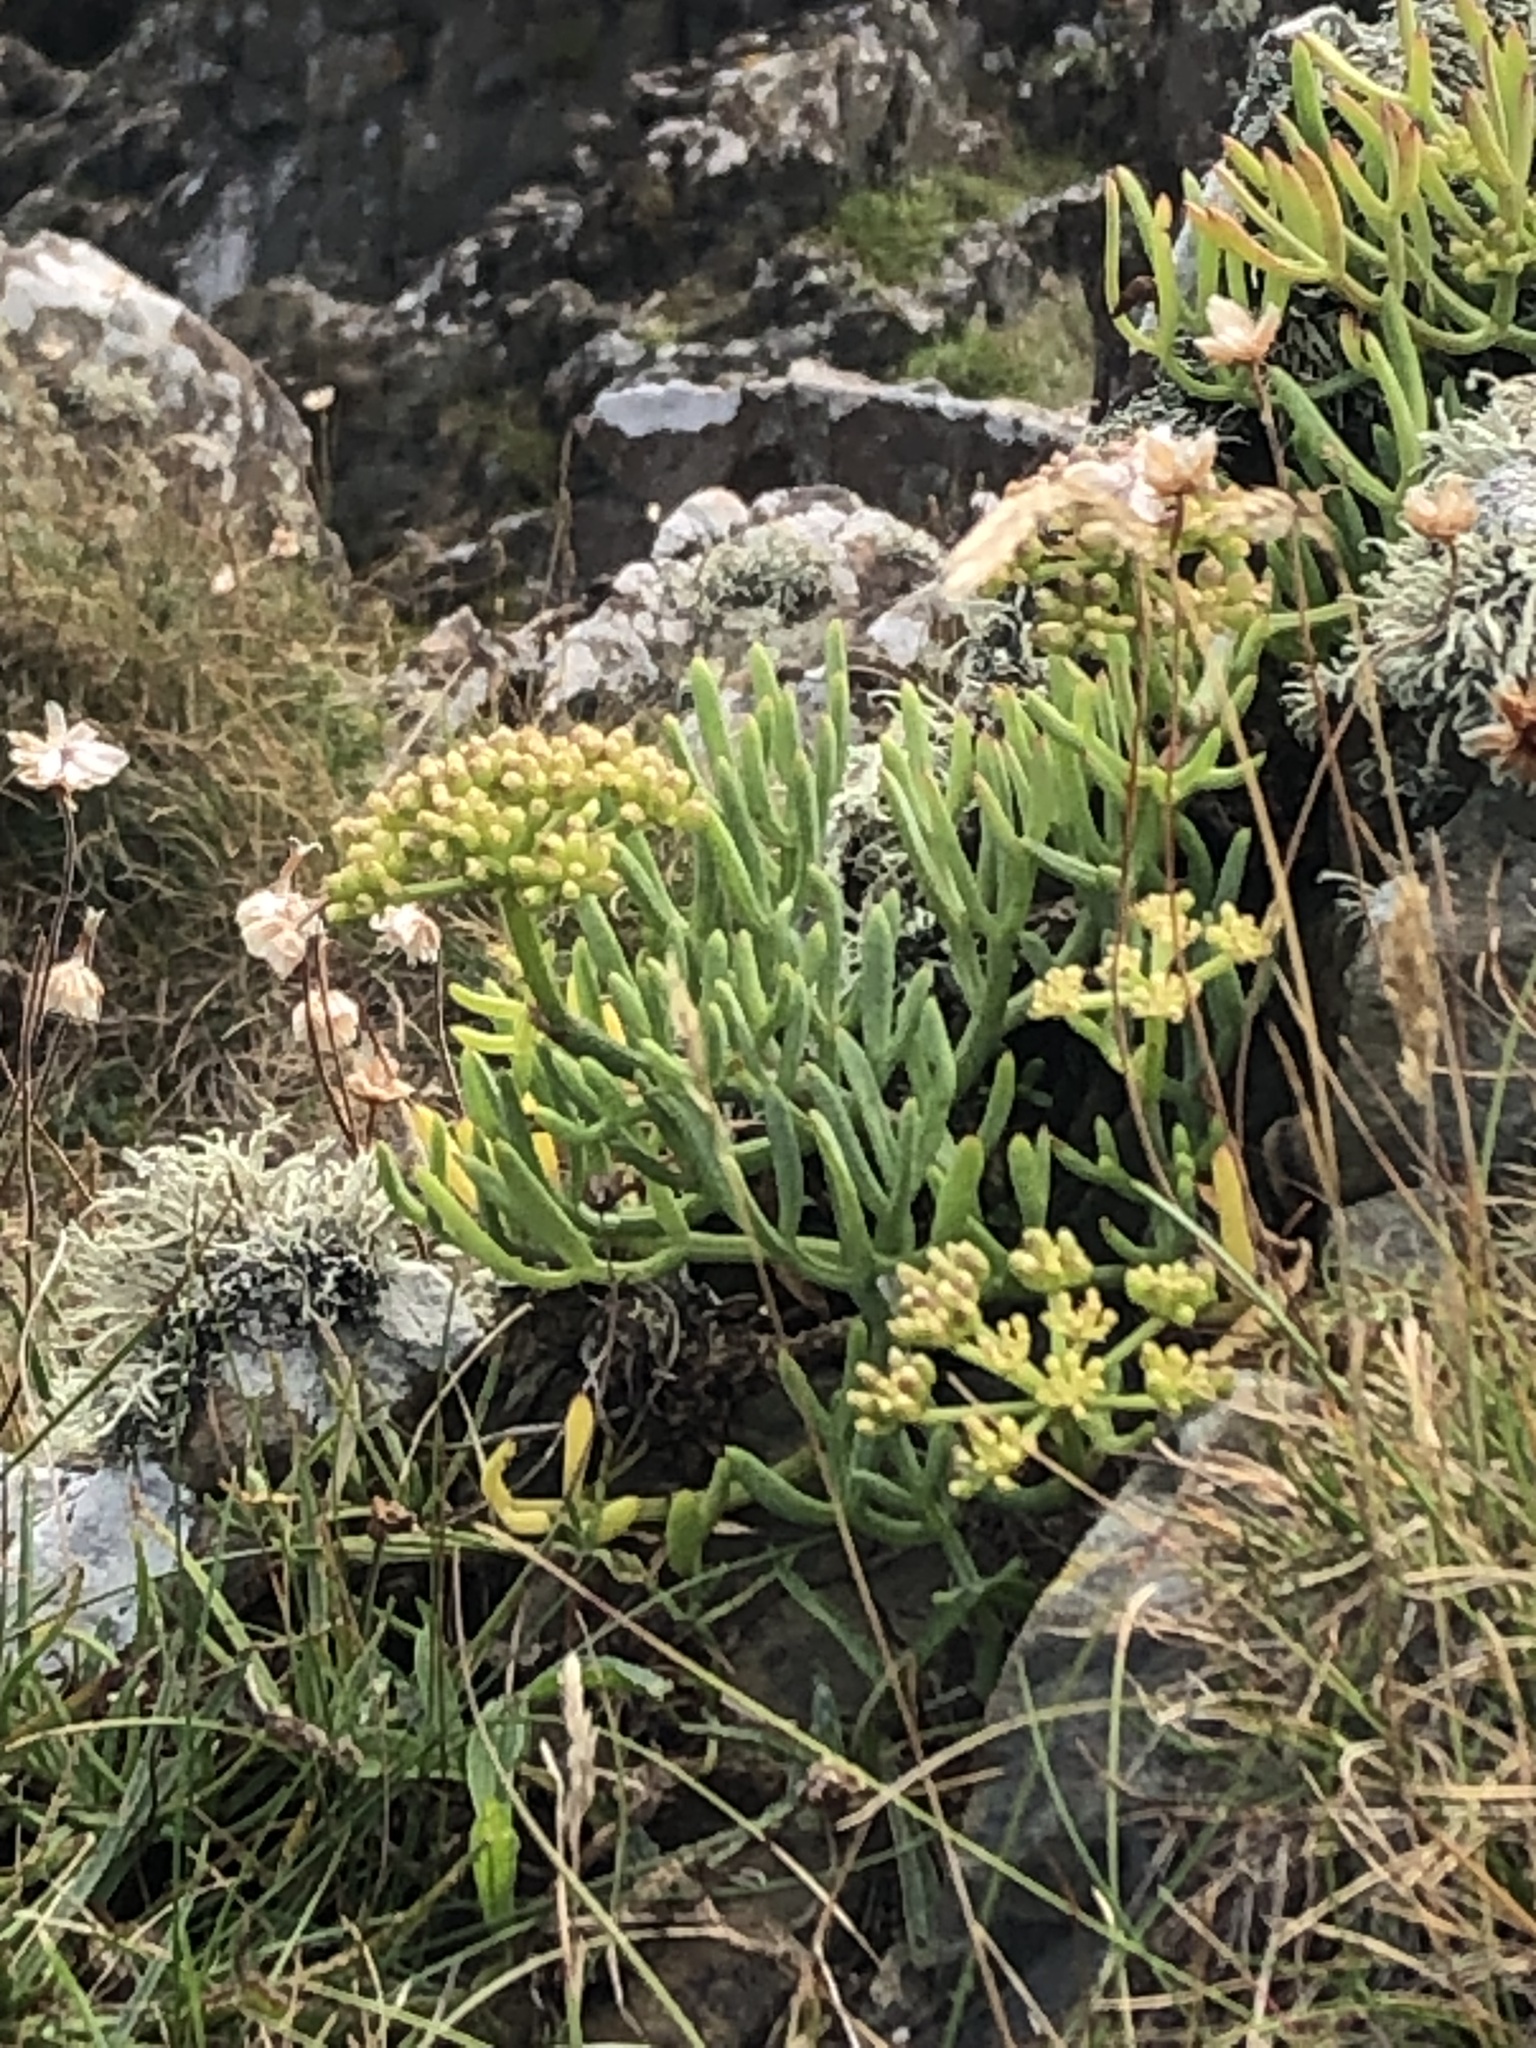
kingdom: Plantae
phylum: Tracheophyta
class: Magnoliopsida
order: Apiales
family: Apiaceae
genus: Crithmum
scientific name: Crithmum maritimum
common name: Rock samphire
